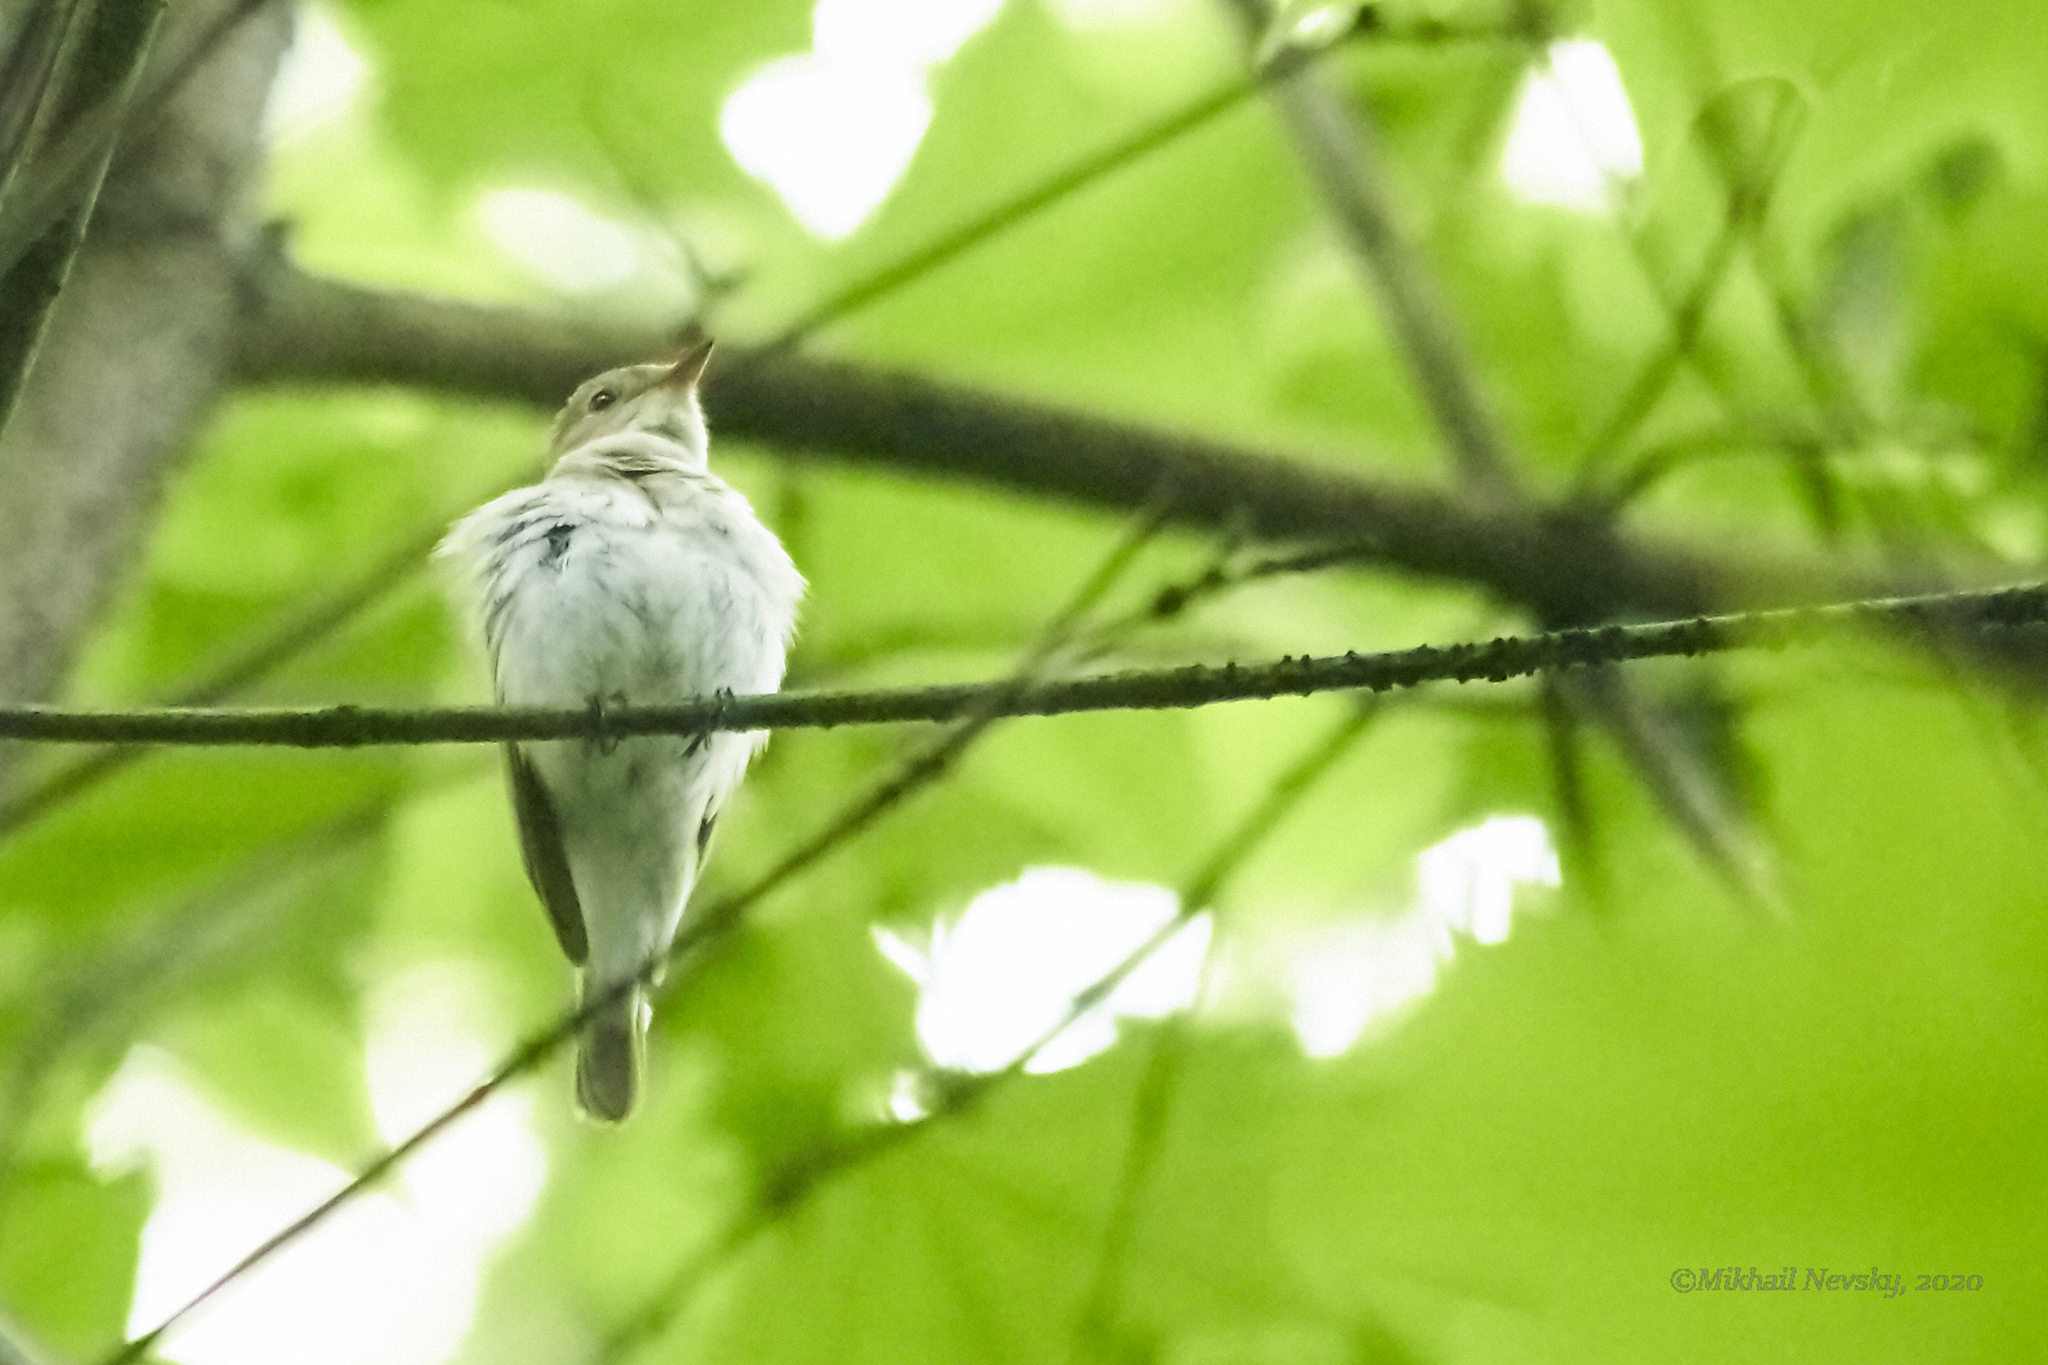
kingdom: Animalia
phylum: Chordata
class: Aves
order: Passeriformes
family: Muscicapidae
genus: Ficedula
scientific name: Ficedula parva
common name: Red-breasted flycatcher
